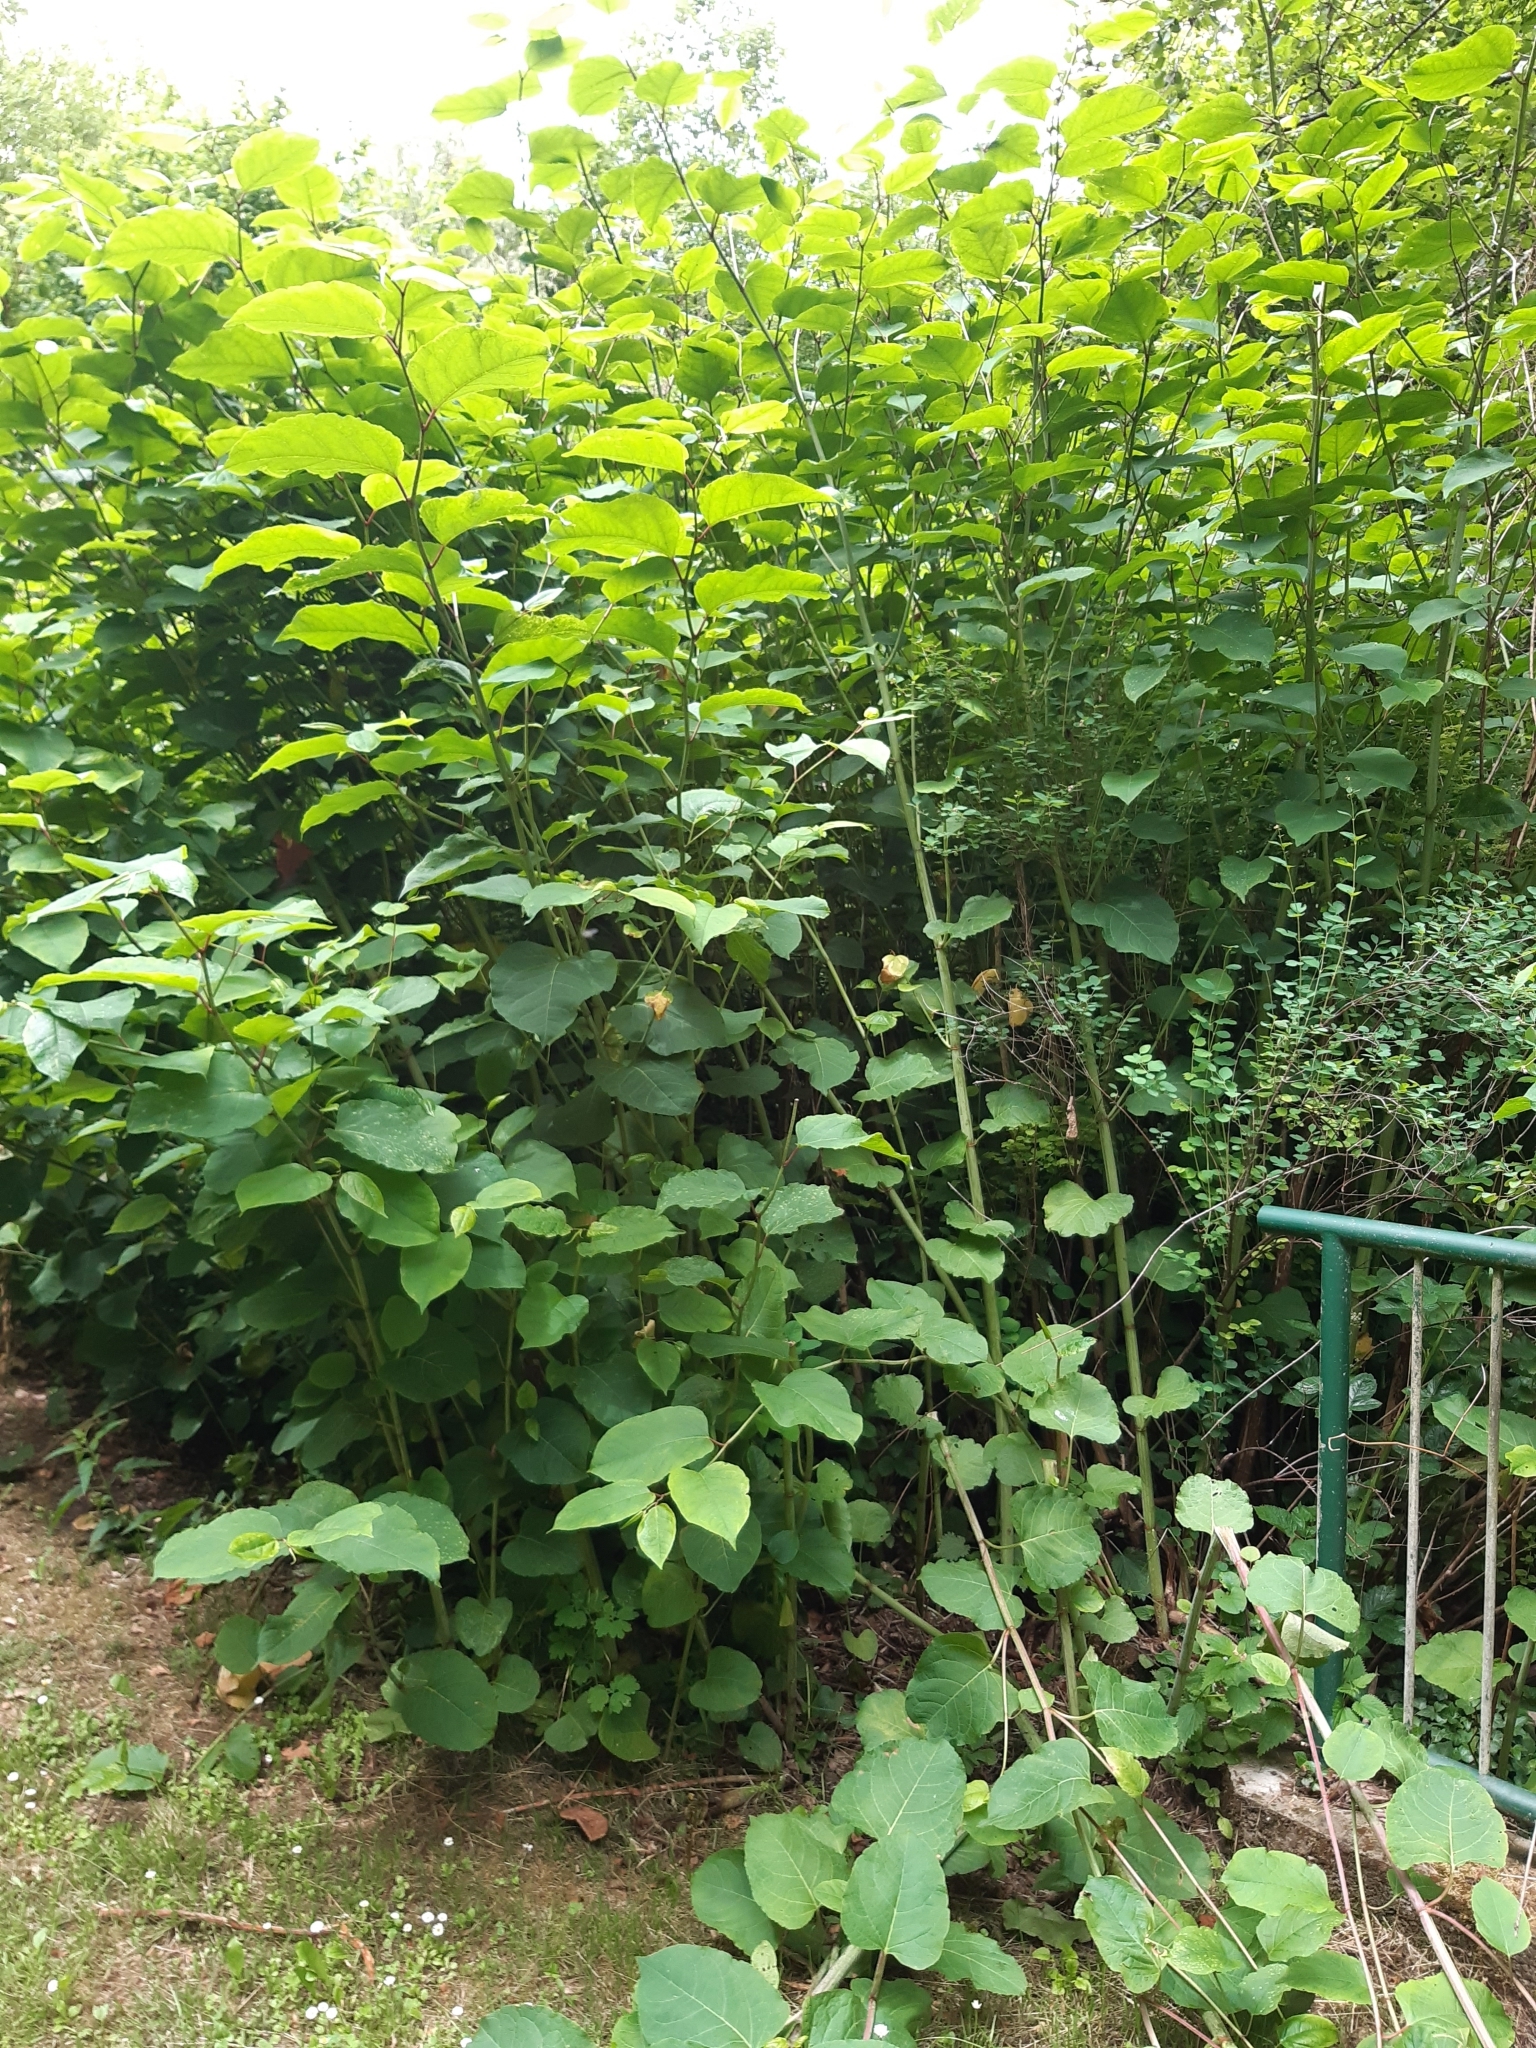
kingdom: Plantae
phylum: Tracheophyta
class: Magnoliopsida
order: Caryophyllales
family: Polygonaceae
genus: Reynoutria
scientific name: Reynoutria japonica
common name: Japanese knotweed
